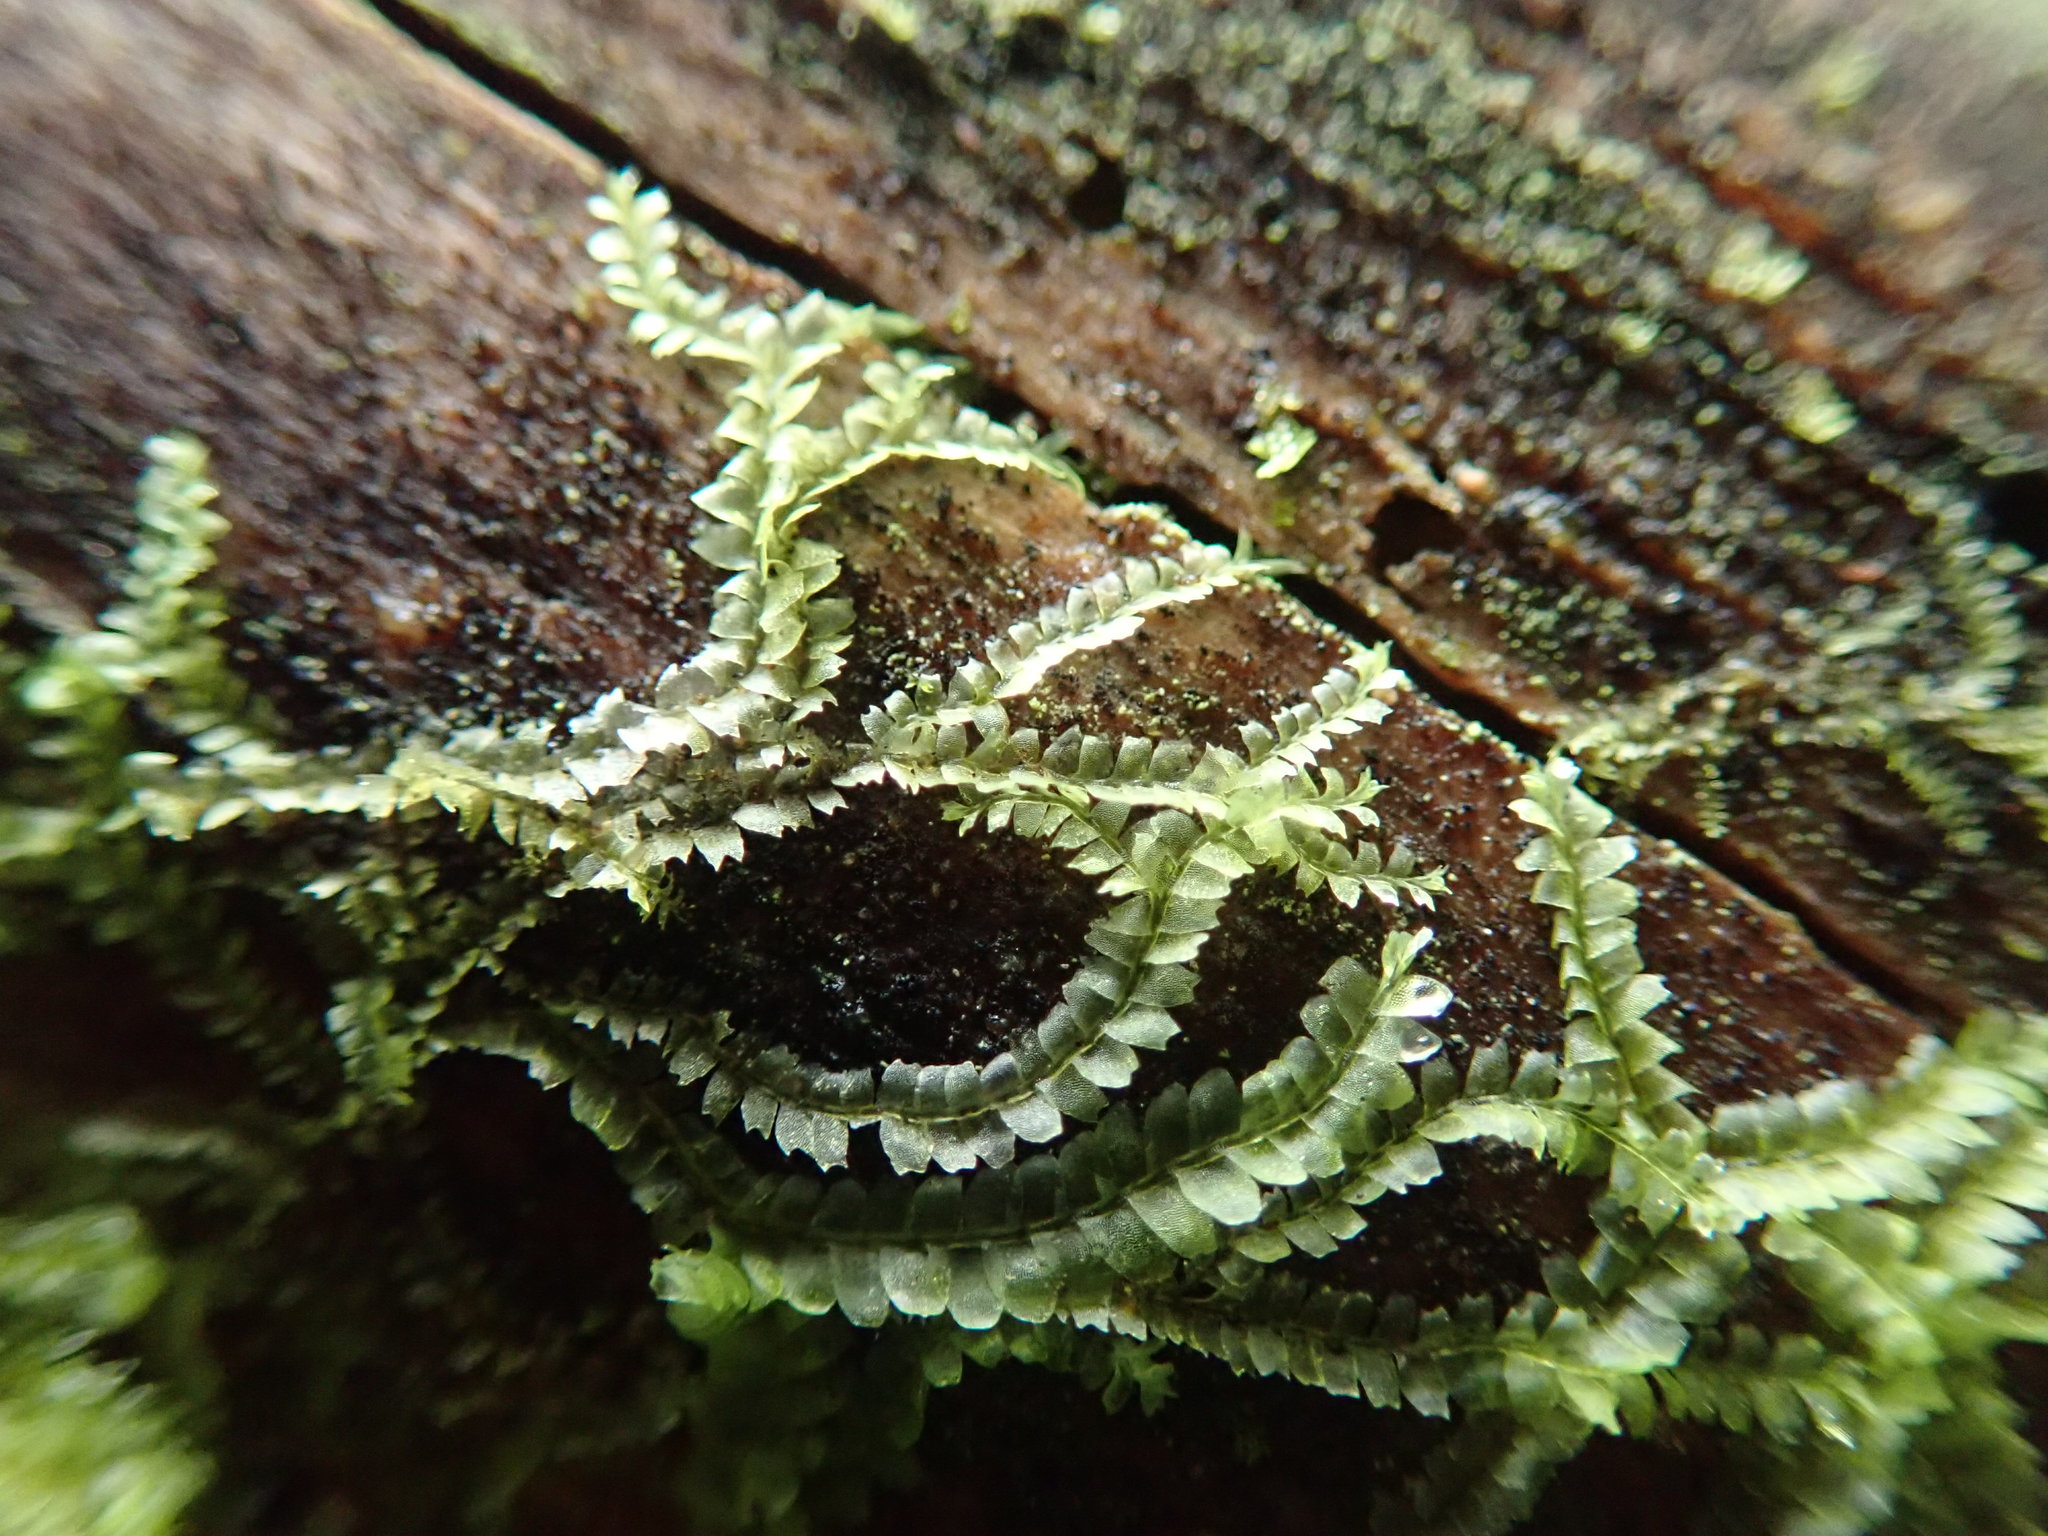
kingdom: Plantae
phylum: Marchantiophyta
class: Jungermanniopsida
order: Jungermanniales
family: Lophocoleaceae
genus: Lophocolea
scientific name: Lophocolea bidentata
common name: Bifid crestwort
